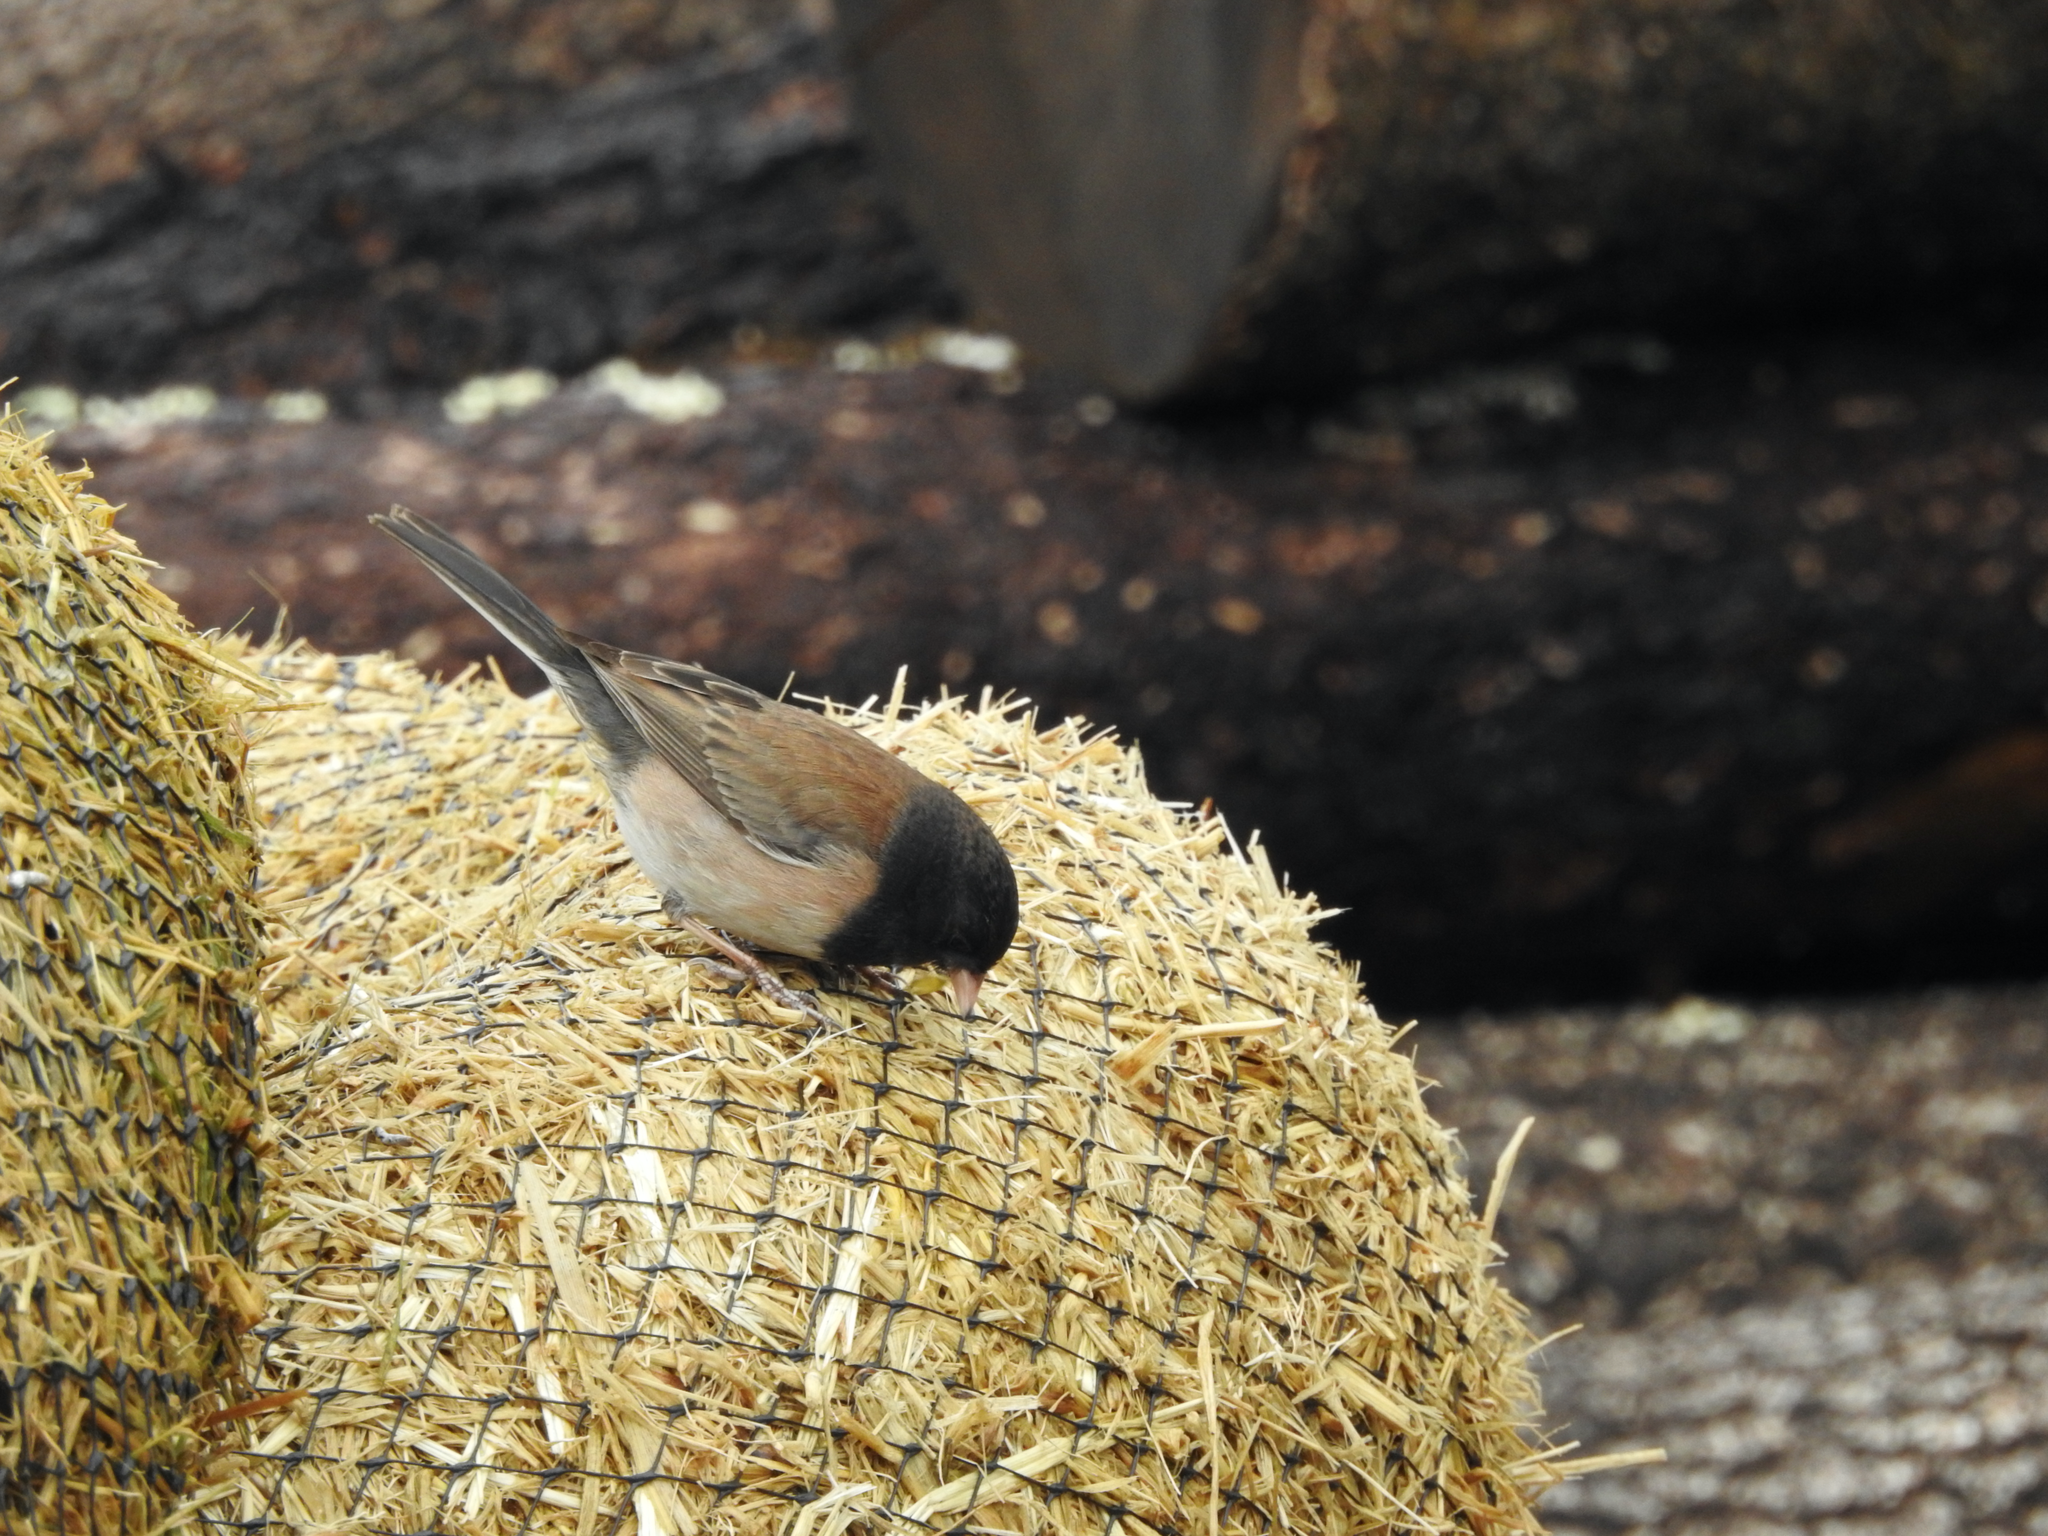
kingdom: Animalia
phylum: Chordata
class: Aves
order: Passeriformes
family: Passerellidae
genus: Junco
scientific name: Junco hyemalis
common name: Dark-eyed junco
